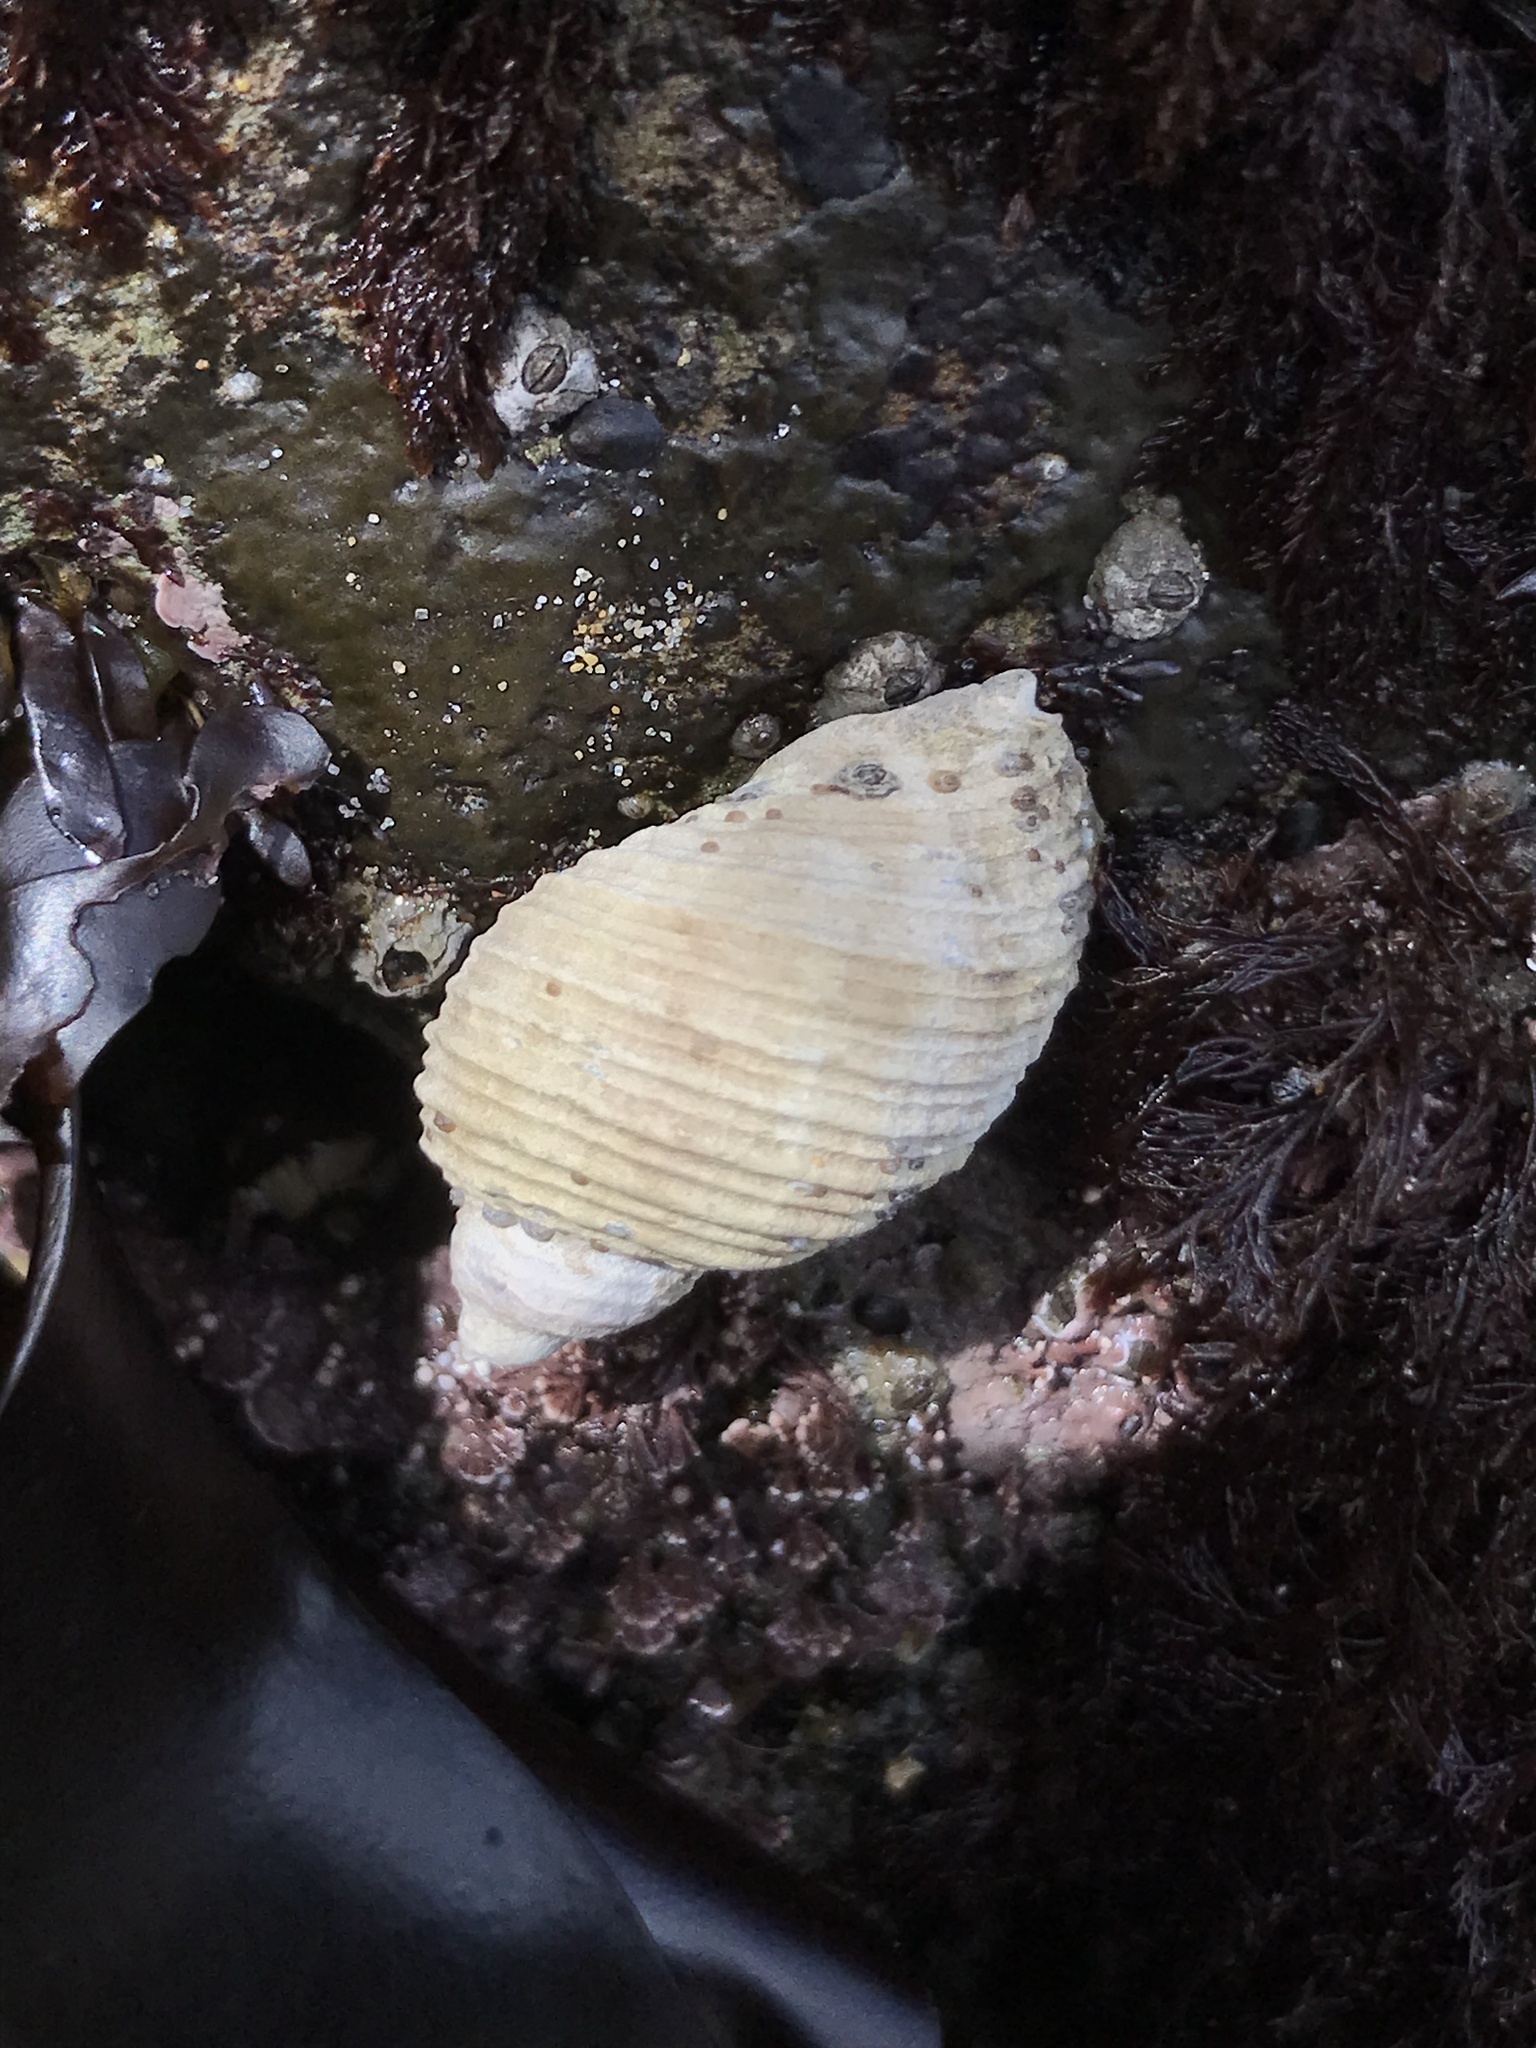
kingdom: Animalia
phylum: Mollusca
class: Gastropoda
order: Neogastropoda
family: Muricidae
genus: Nucella
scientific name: Nucella canaliculata
